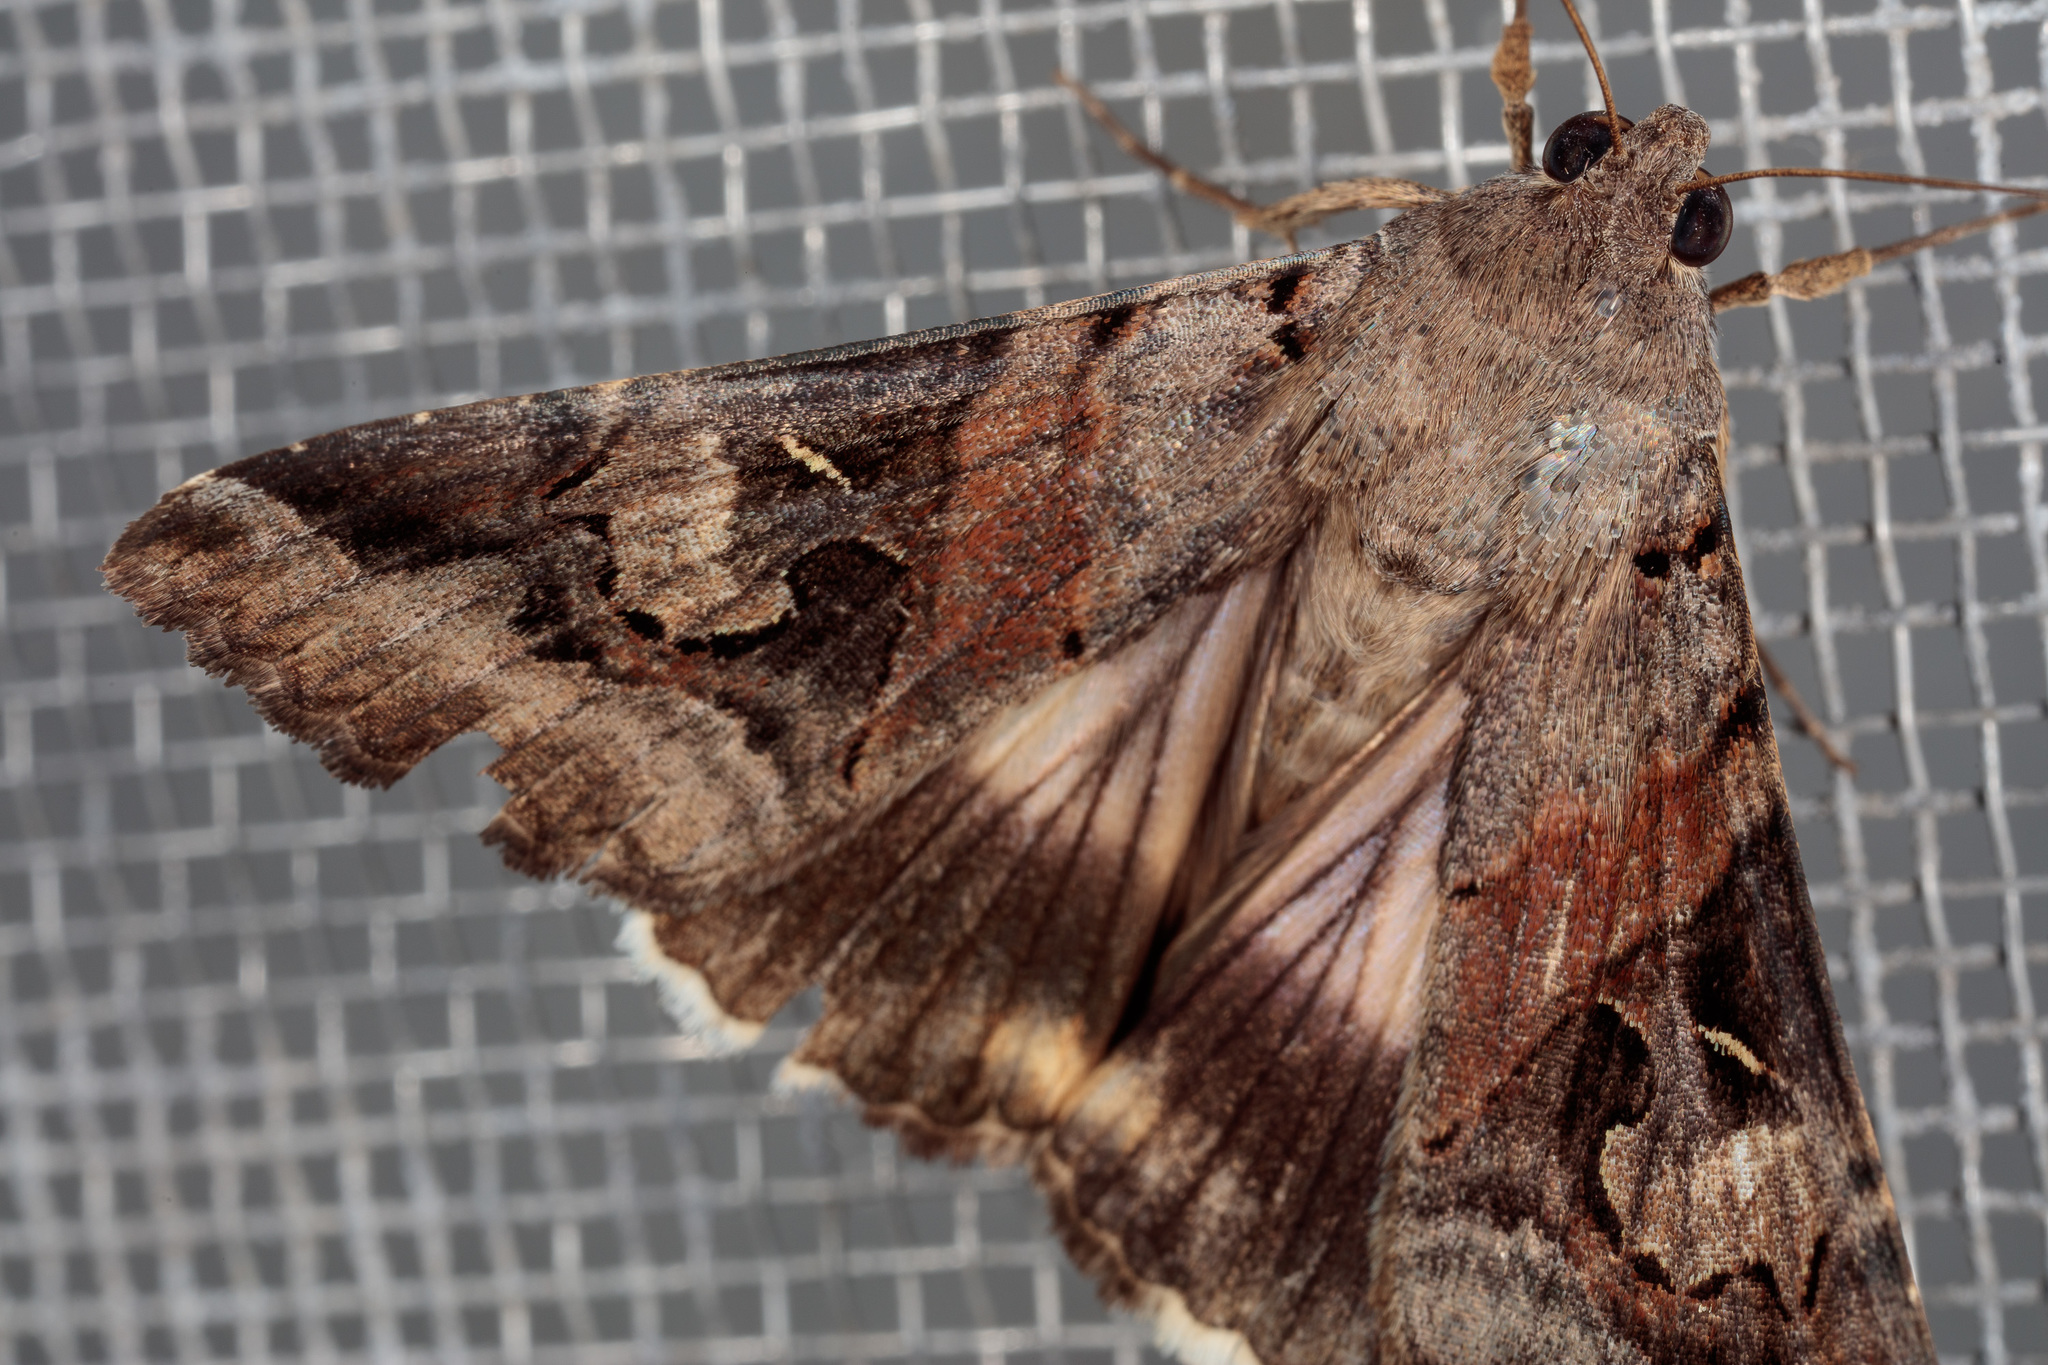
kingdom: Animalia
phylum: Arthropoda
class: Insecta
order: Lepidoptera
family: Erebidae
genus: Melipotis
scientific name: Melipotis indomita
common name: Moth
